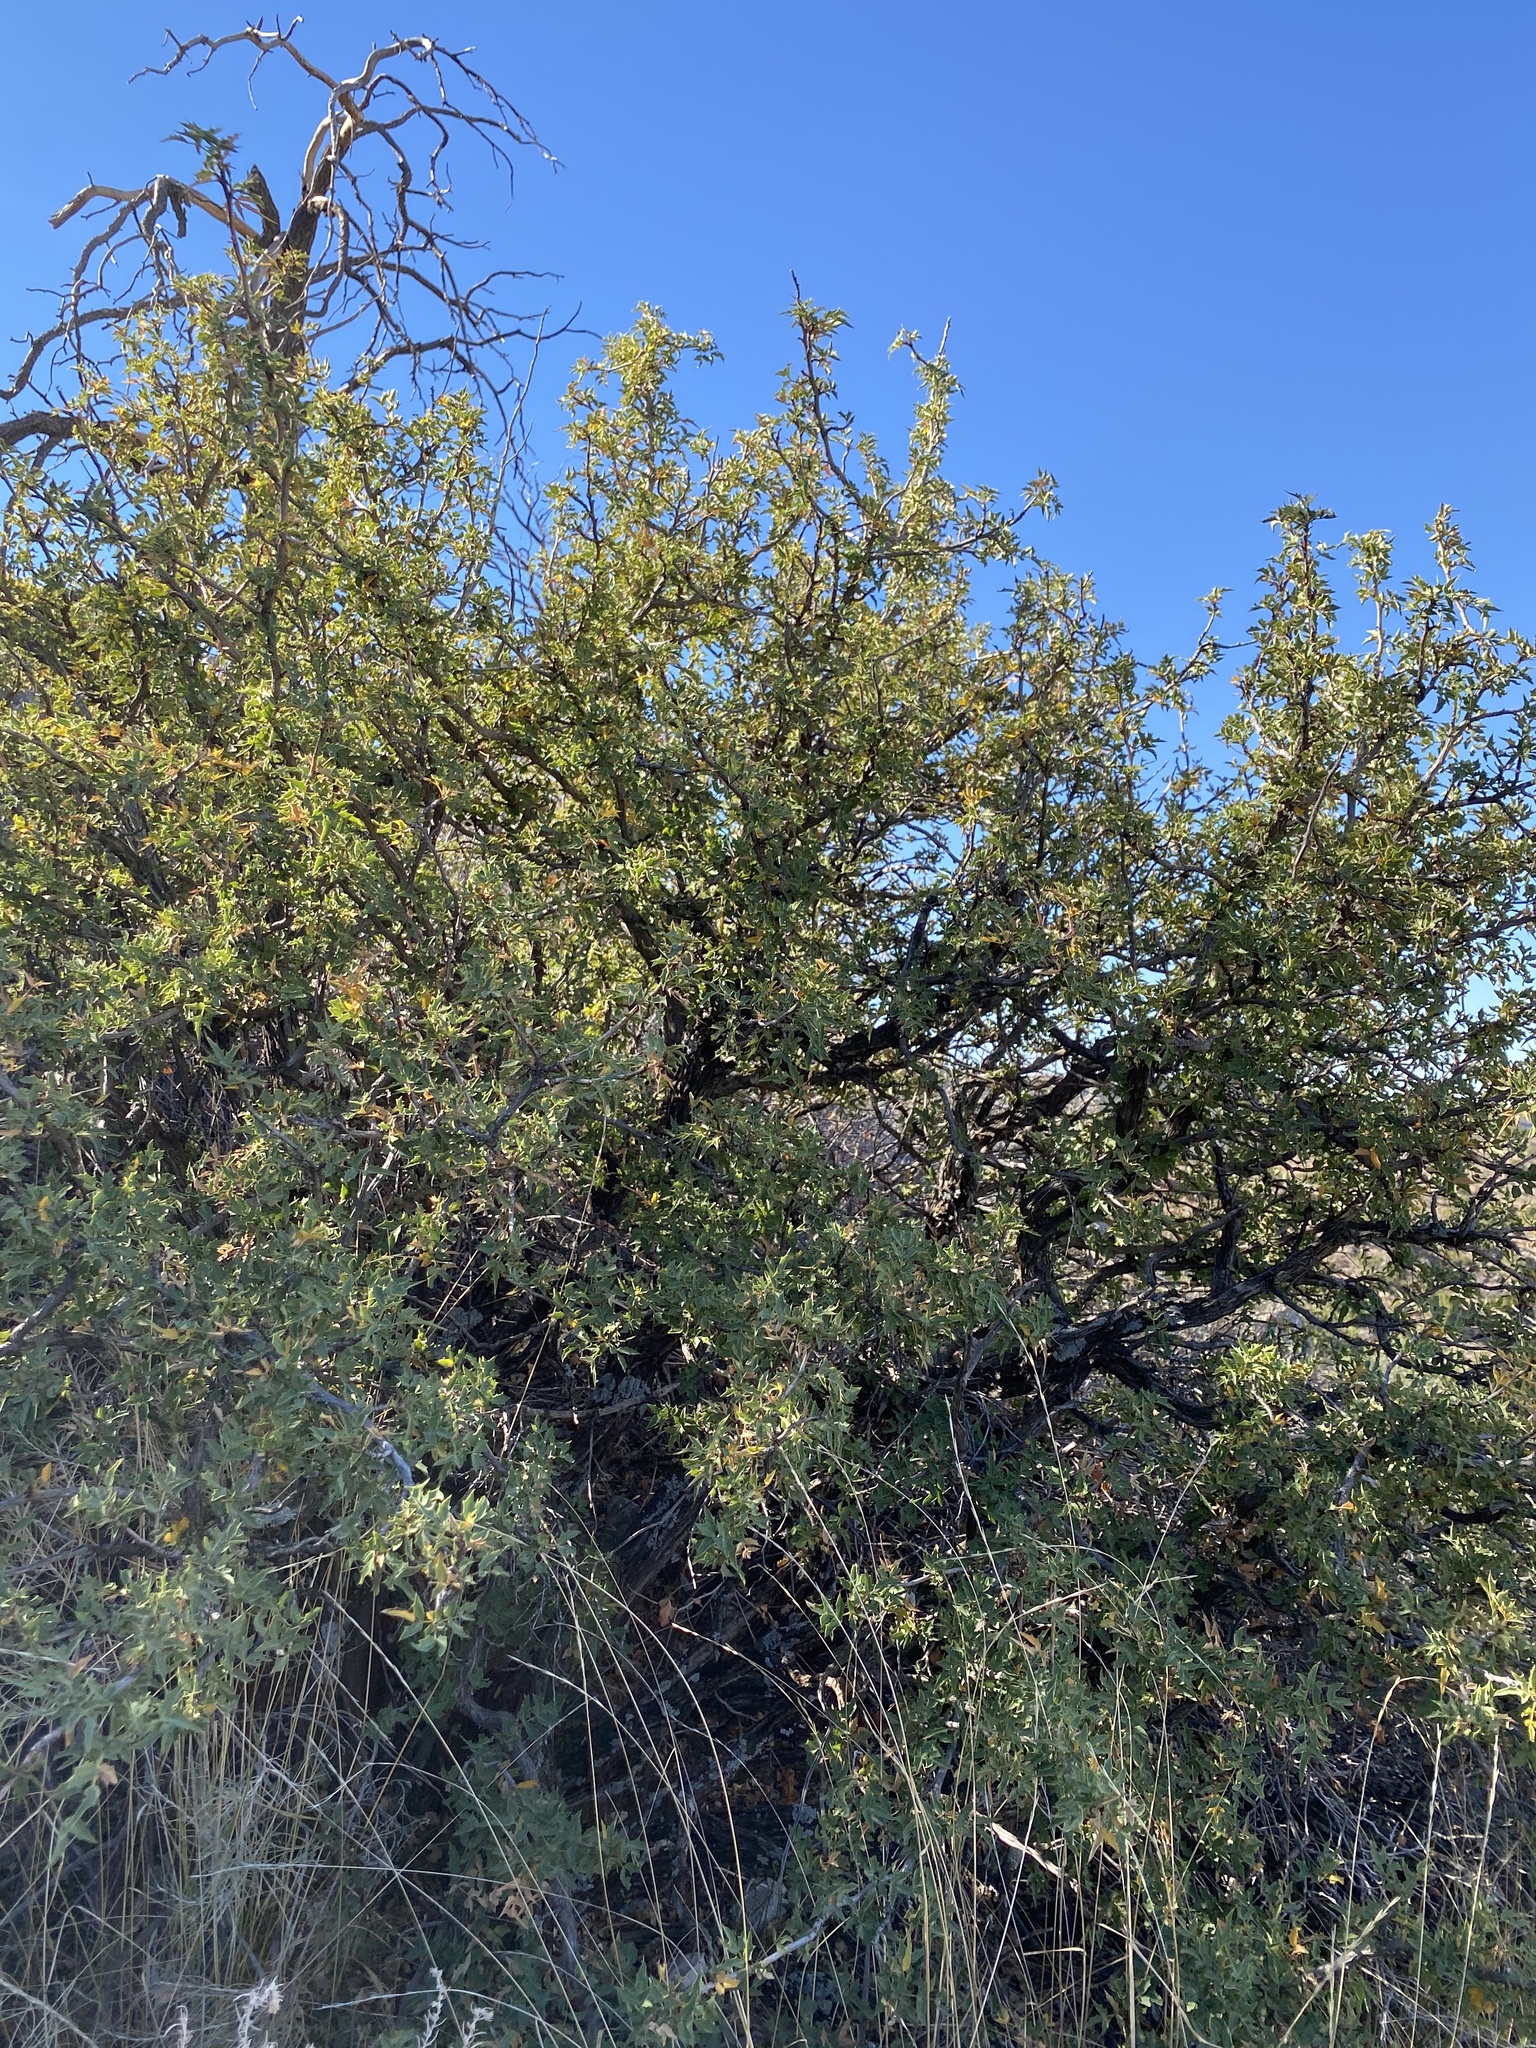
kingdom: Plantae
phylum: Tracheophyta
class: Magnoliopsida
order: Ranunculales
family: Berberidaceae
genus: Alloberberis
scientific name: Alloberberis haematocarpa
